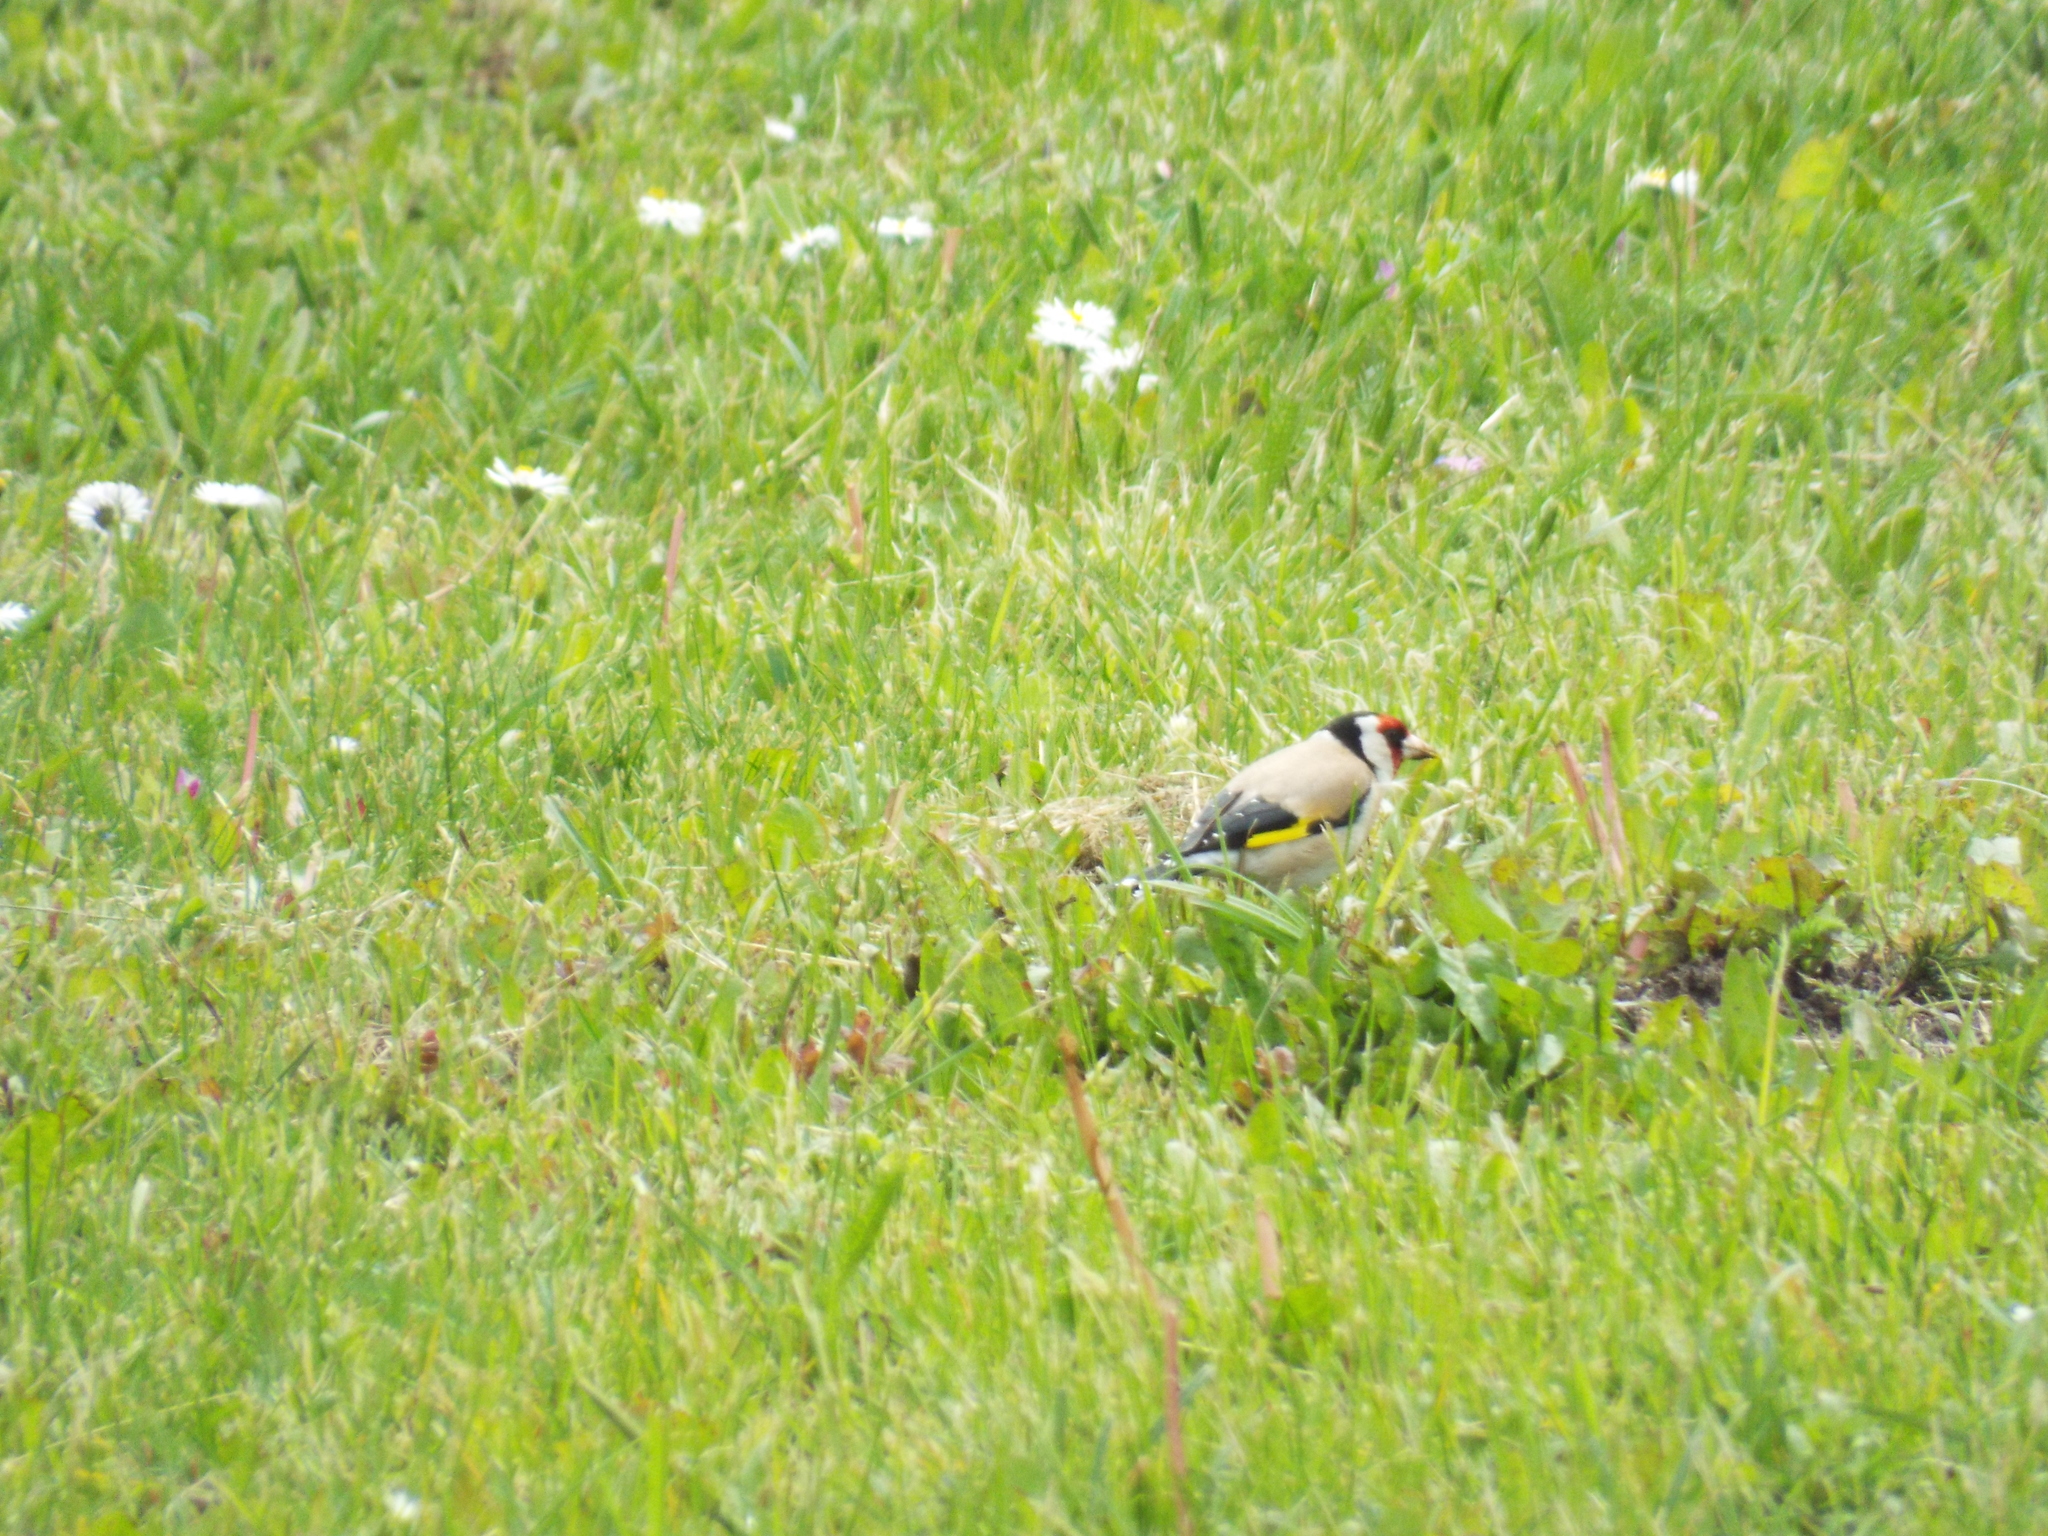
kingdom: Animalia
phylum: Chordata
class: Aves
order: Passeriformes
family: Fringillidae
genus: Carduelis
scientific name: Carduelis carduelis
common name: European goldfinch
